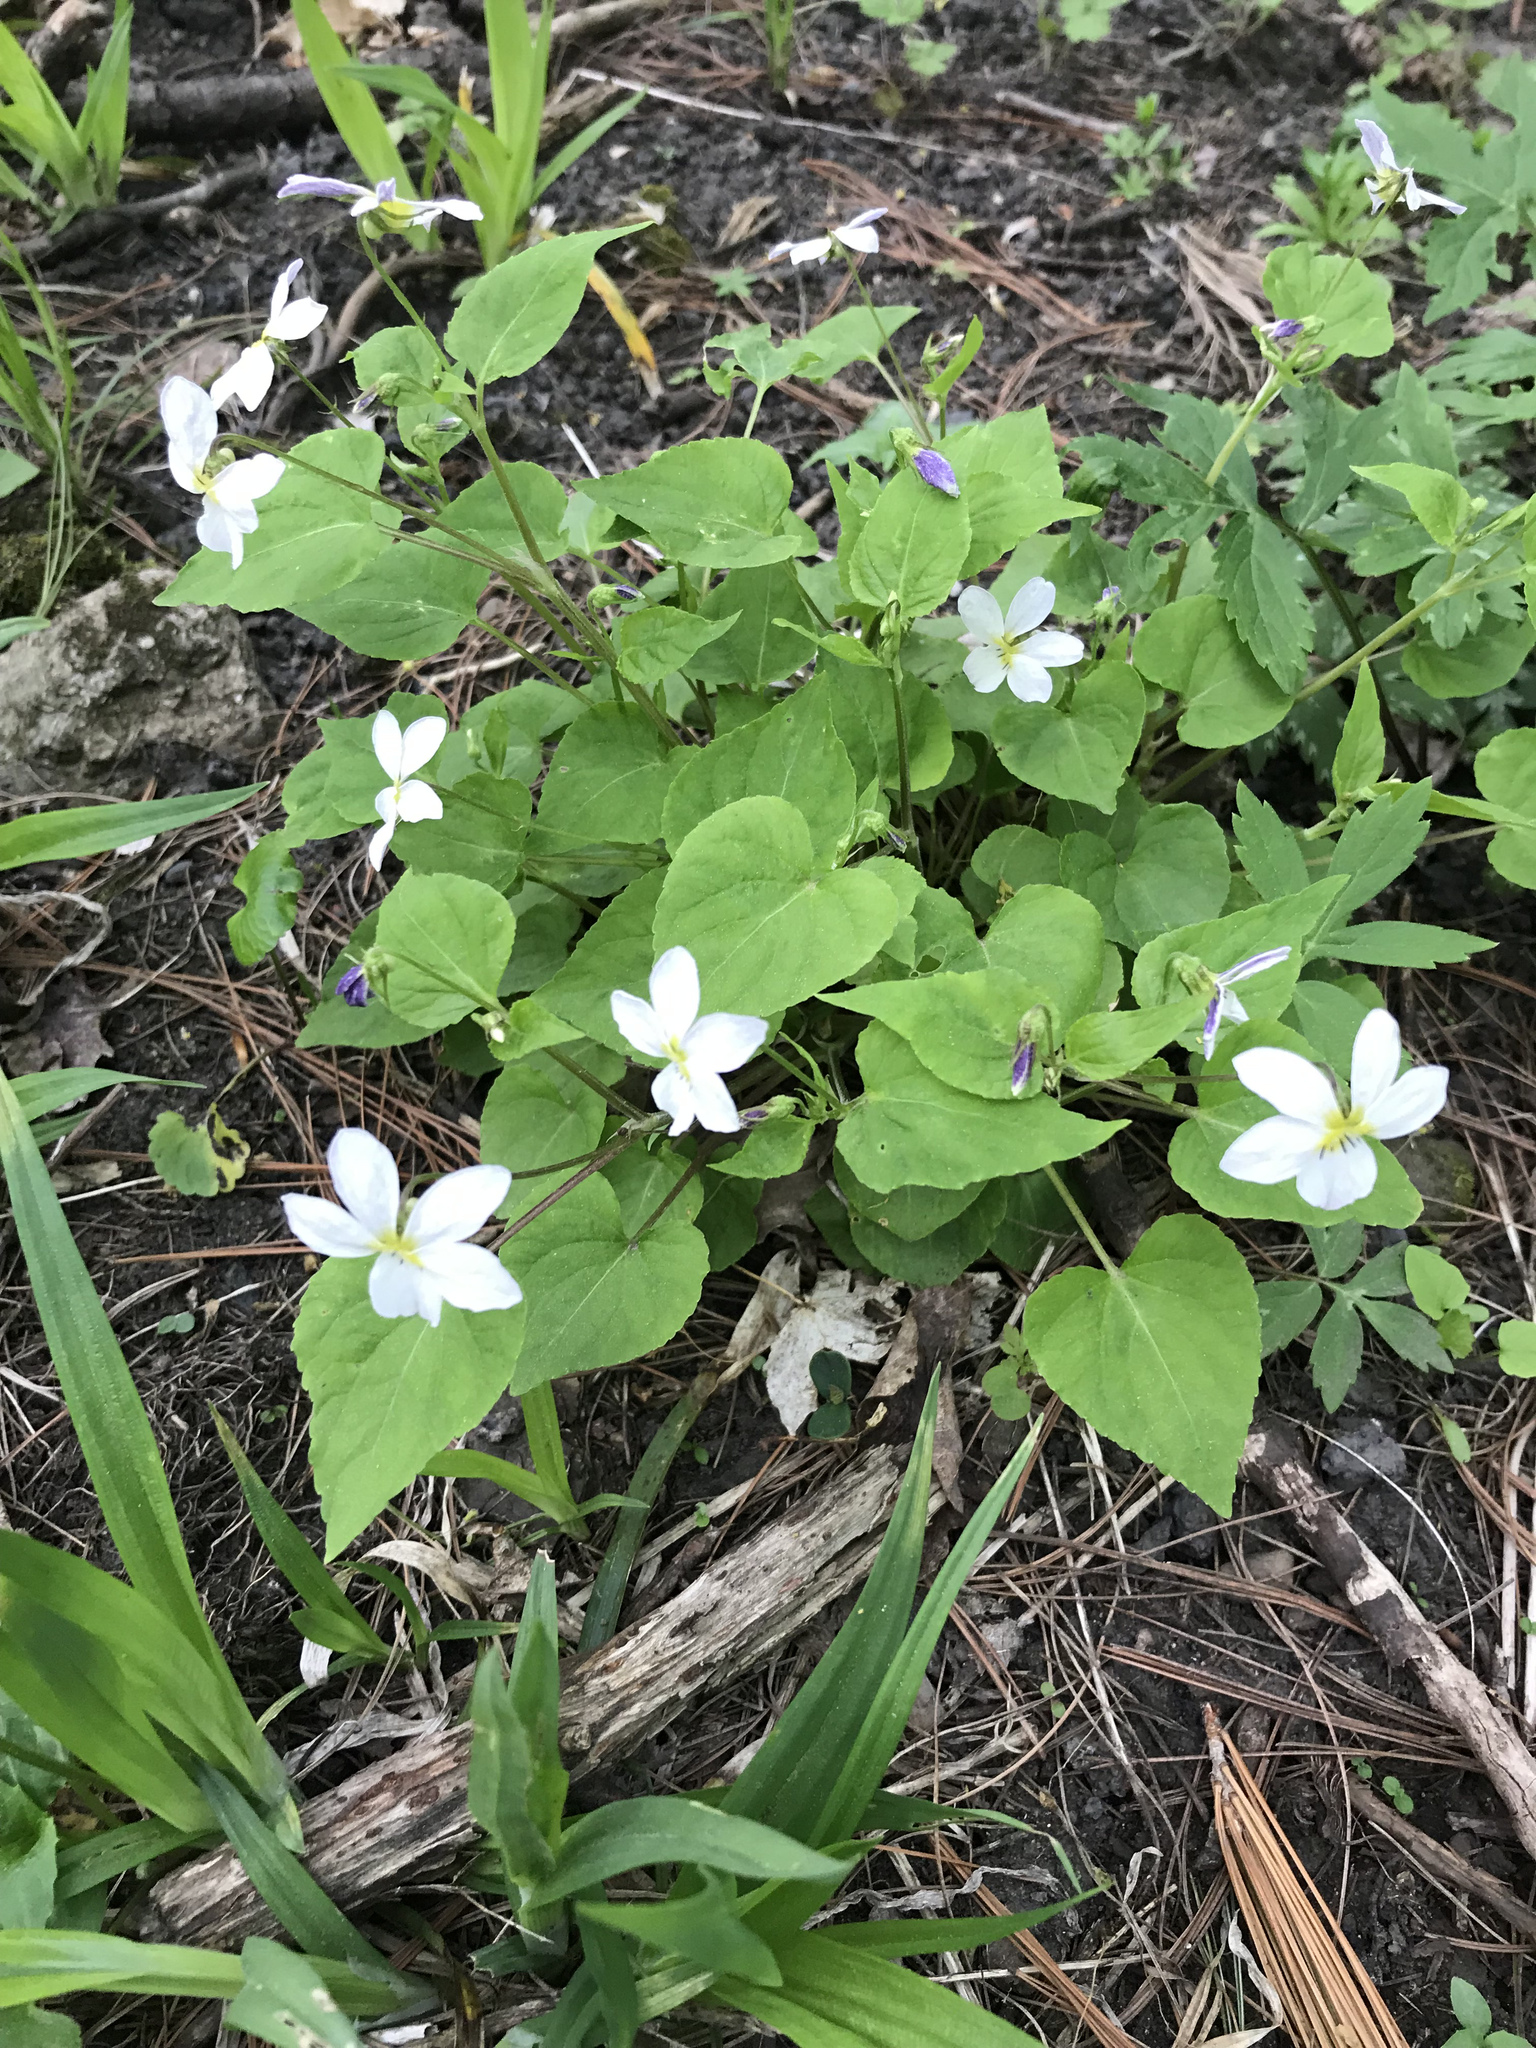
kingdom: Plantae
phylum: Tracheophyta
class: Magnoliopsida
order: Malpighiales
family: Violaceae
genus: Viola
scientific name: Viola canadensis
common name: Canada violet
